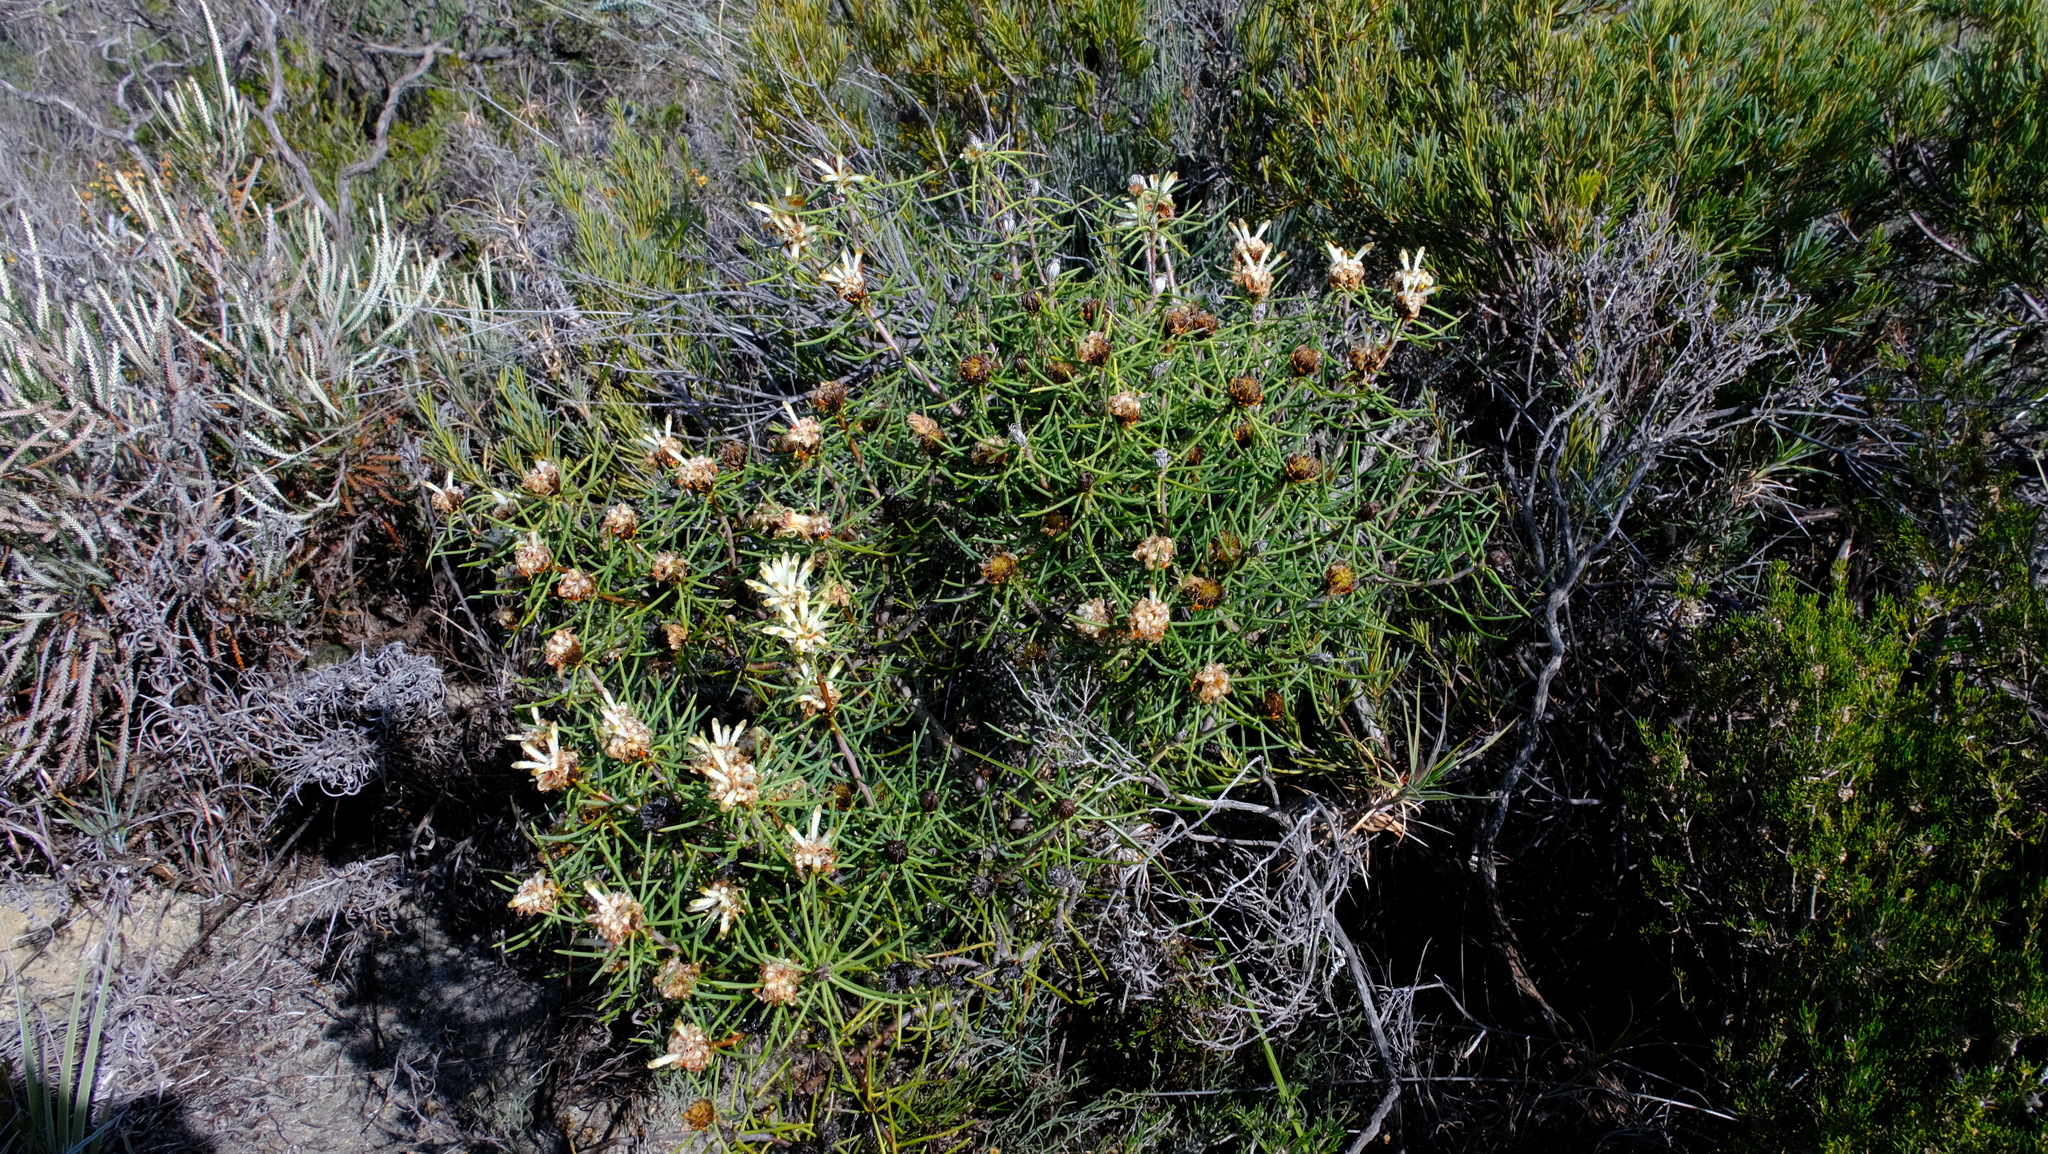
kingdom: Plantae
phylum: Tracheophyta
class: Magnoliopsida
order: Proteales
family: Proteaceae
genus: Petrophile
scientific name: Petrophile brevifolia
